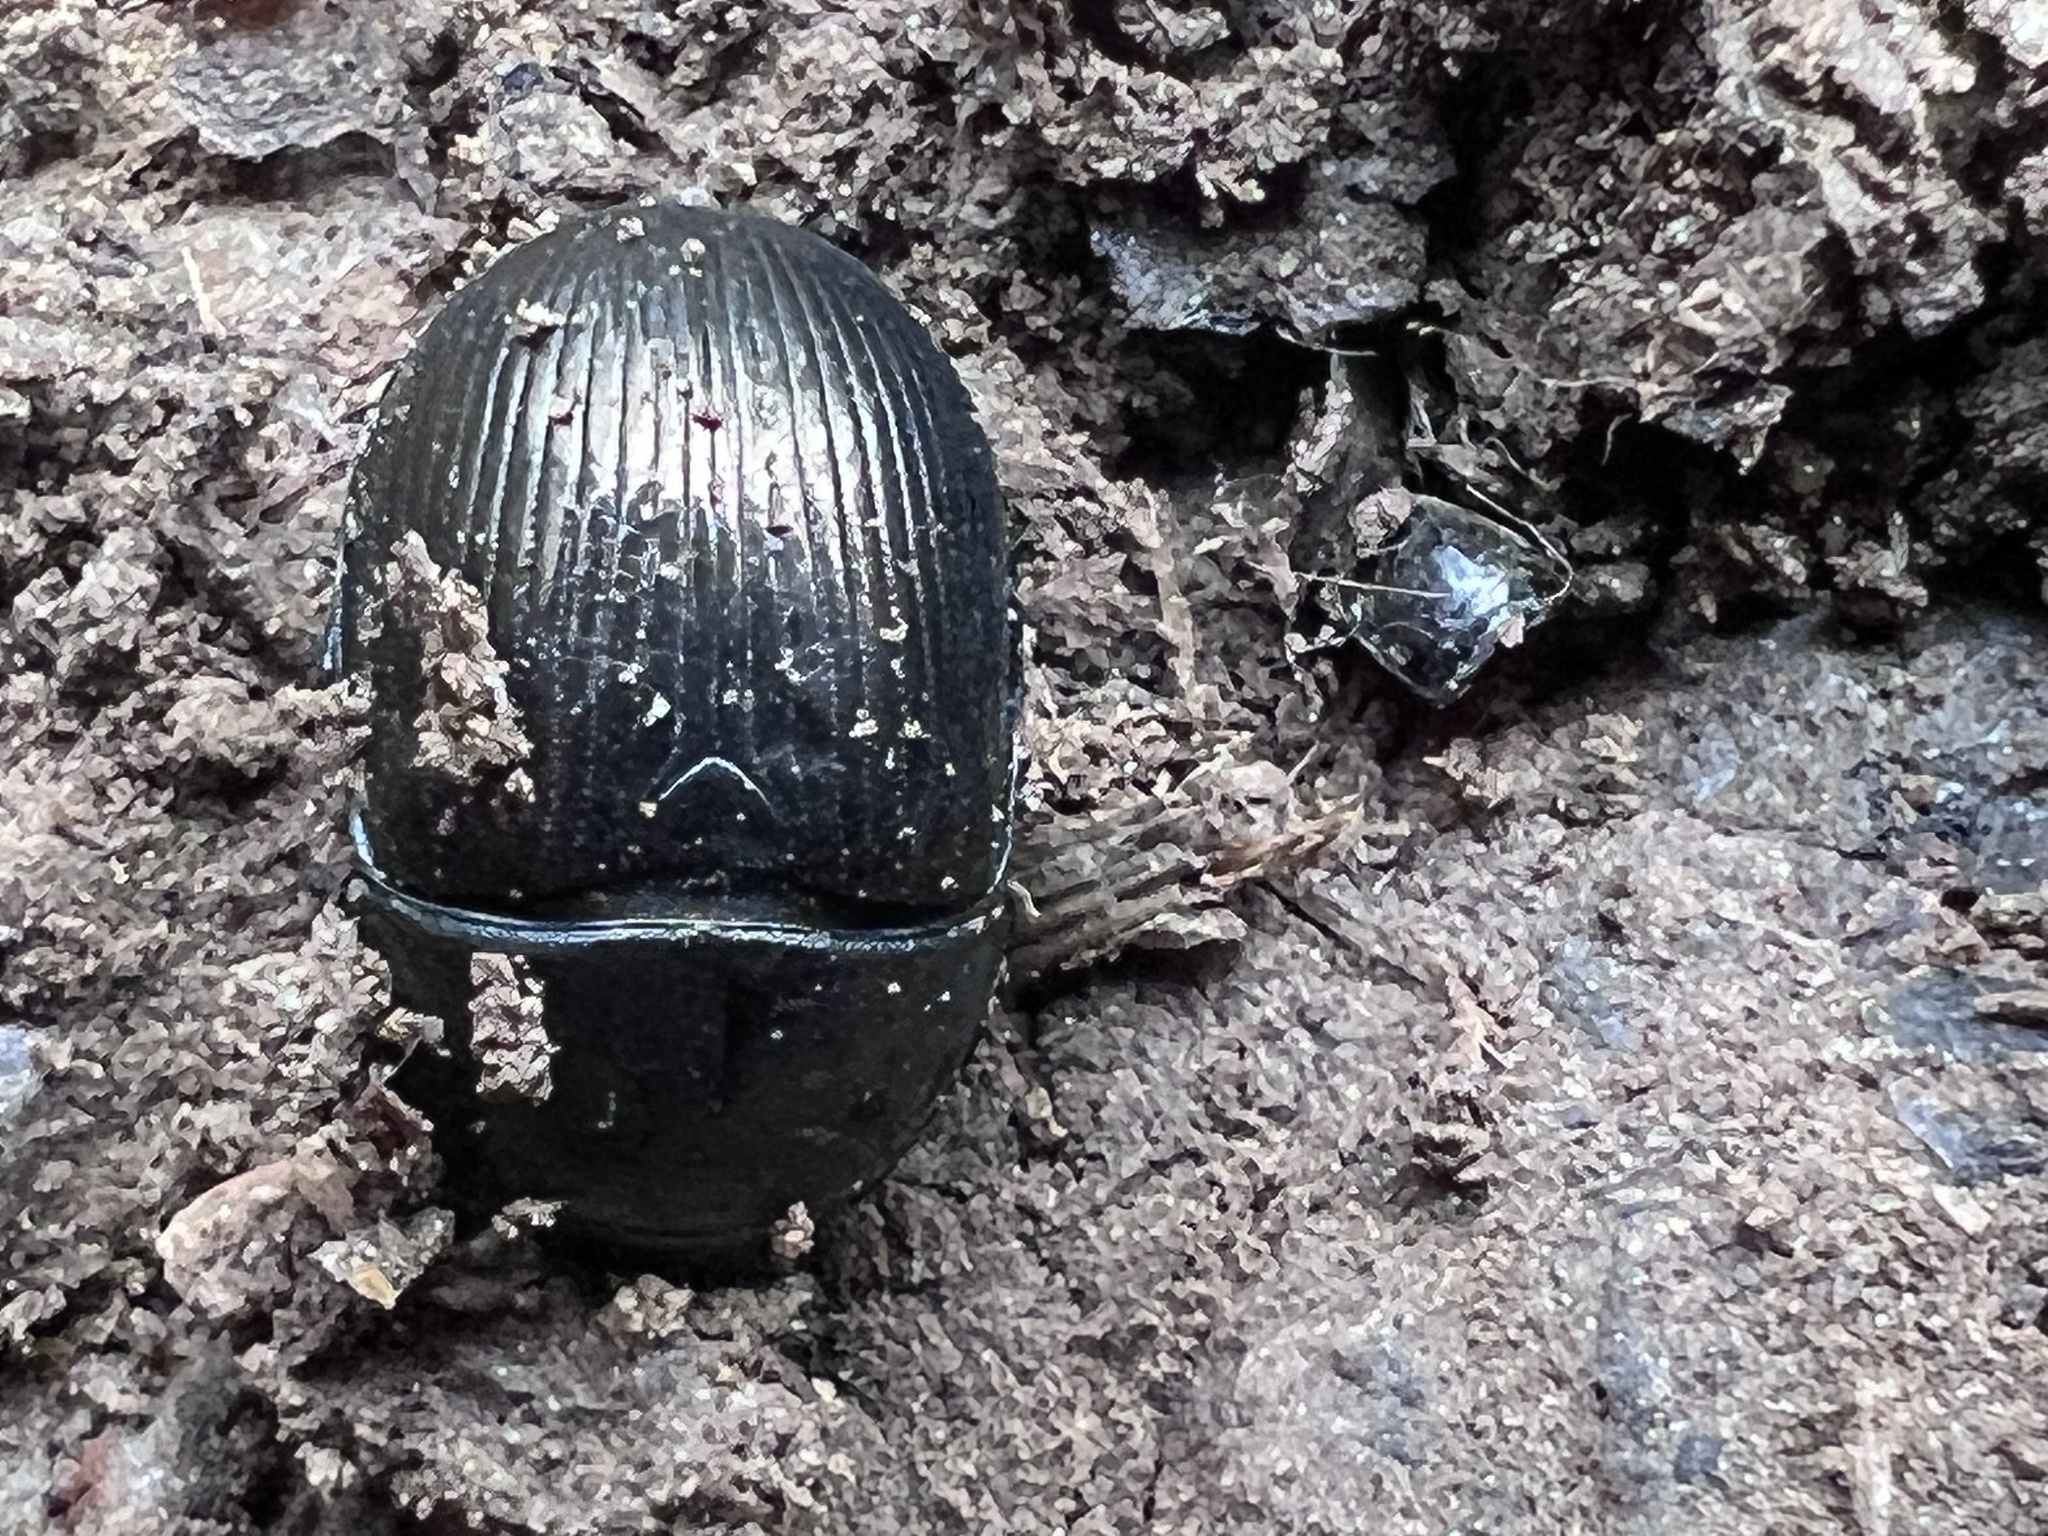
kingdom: Animalia
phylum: Arthropoda
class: Insecta
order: Coleoptera
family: Geotrupidae
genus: Cnemotrupes
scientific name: Cnemotrupes semiopacus
